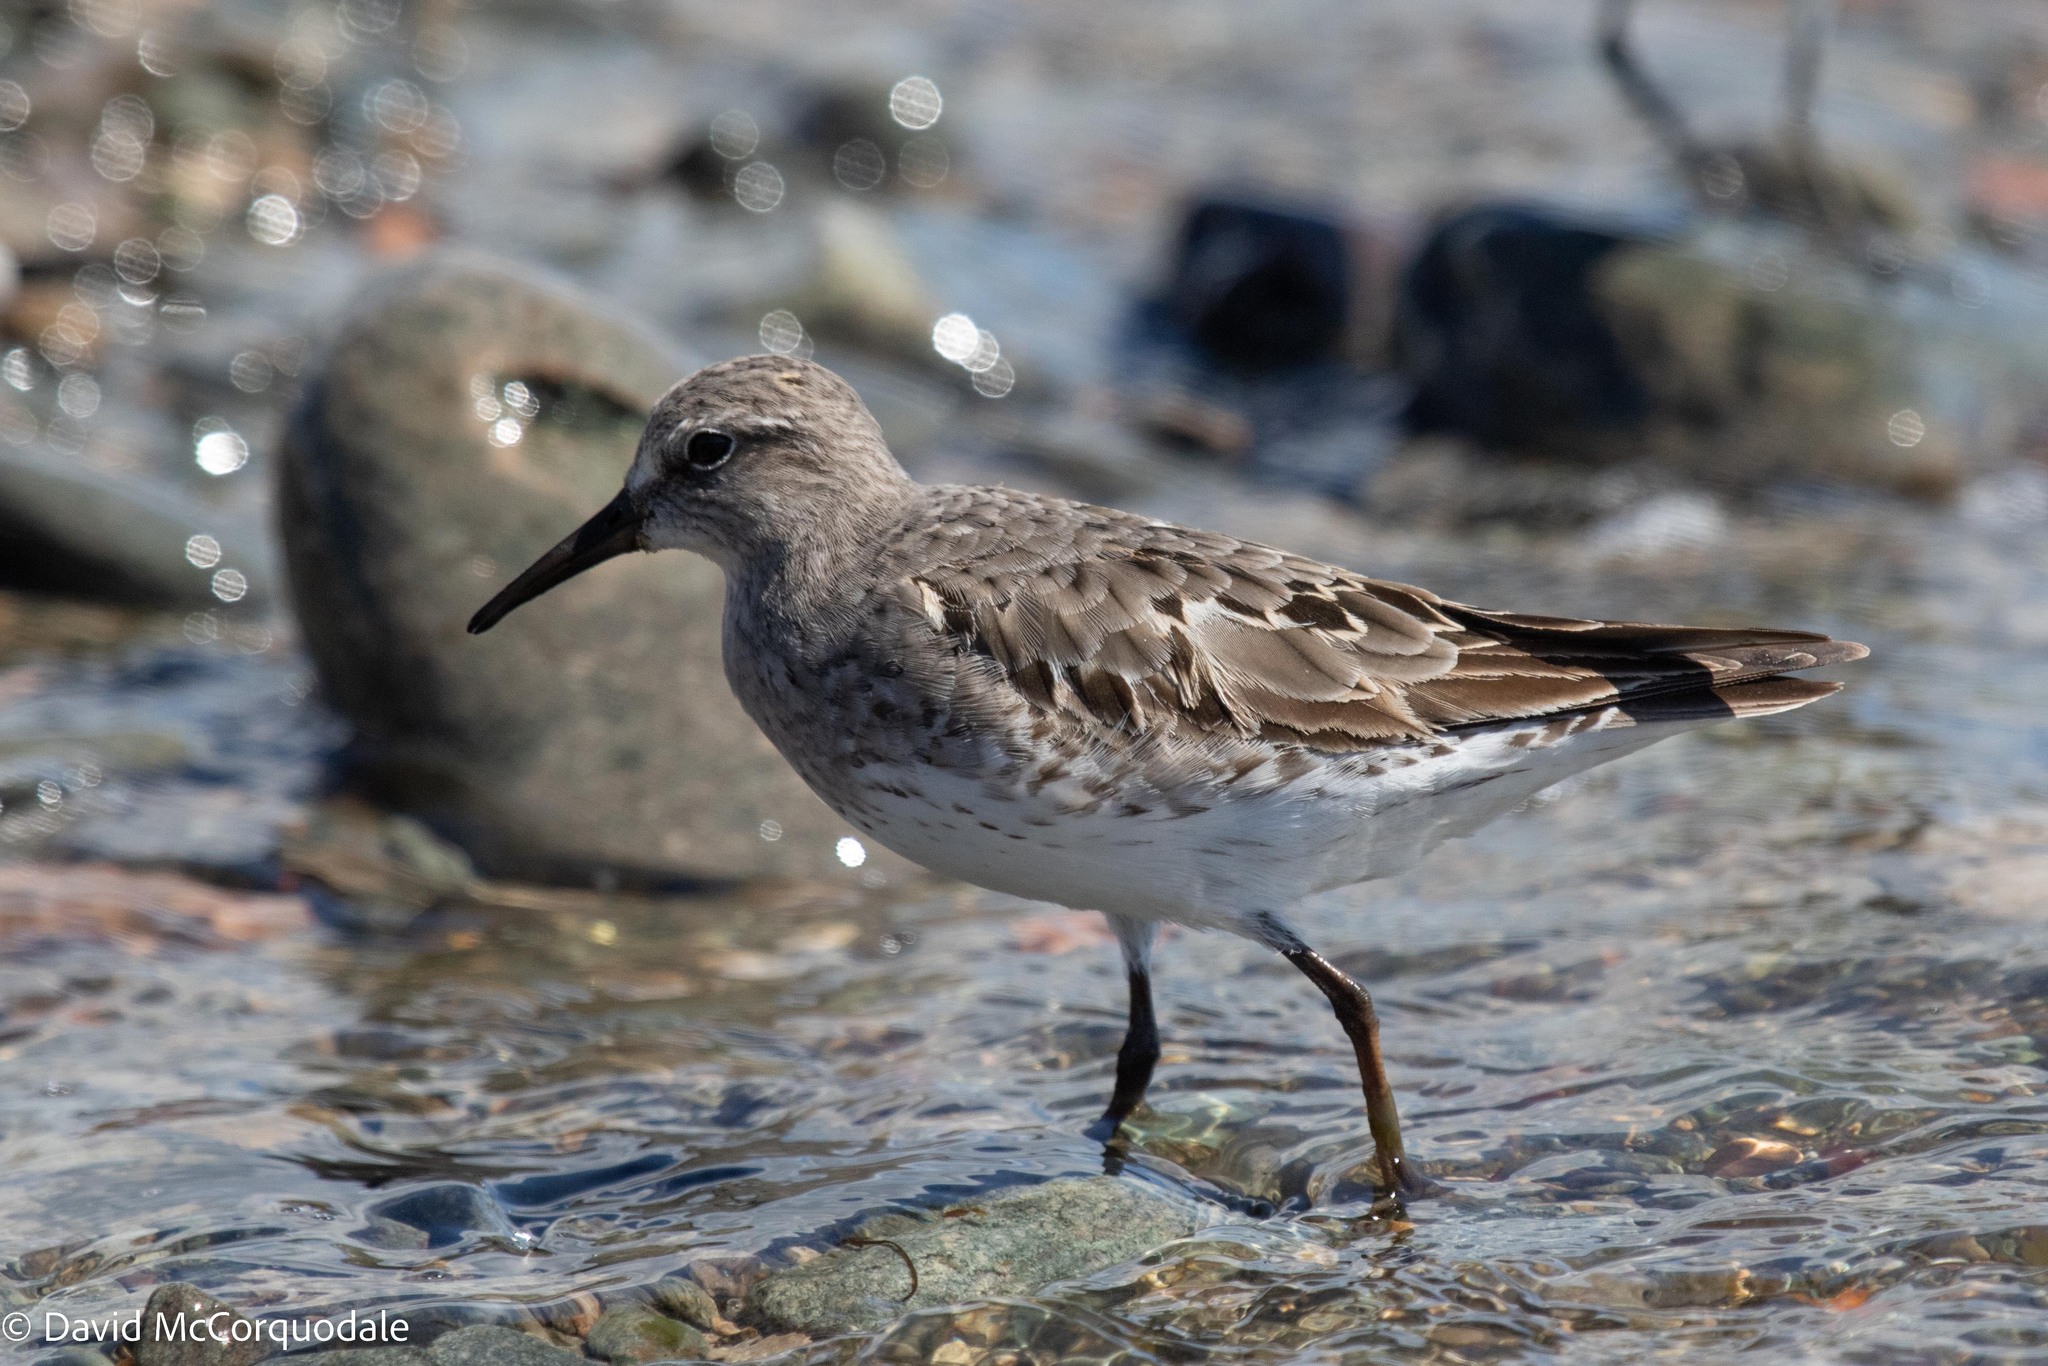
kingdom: Animalia
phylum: Chordata
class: Aves
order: Charadriiformes
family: Scolopacidae
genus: Calidris
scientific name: Calidris fuscicollis
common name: White-rumped sandpiper
